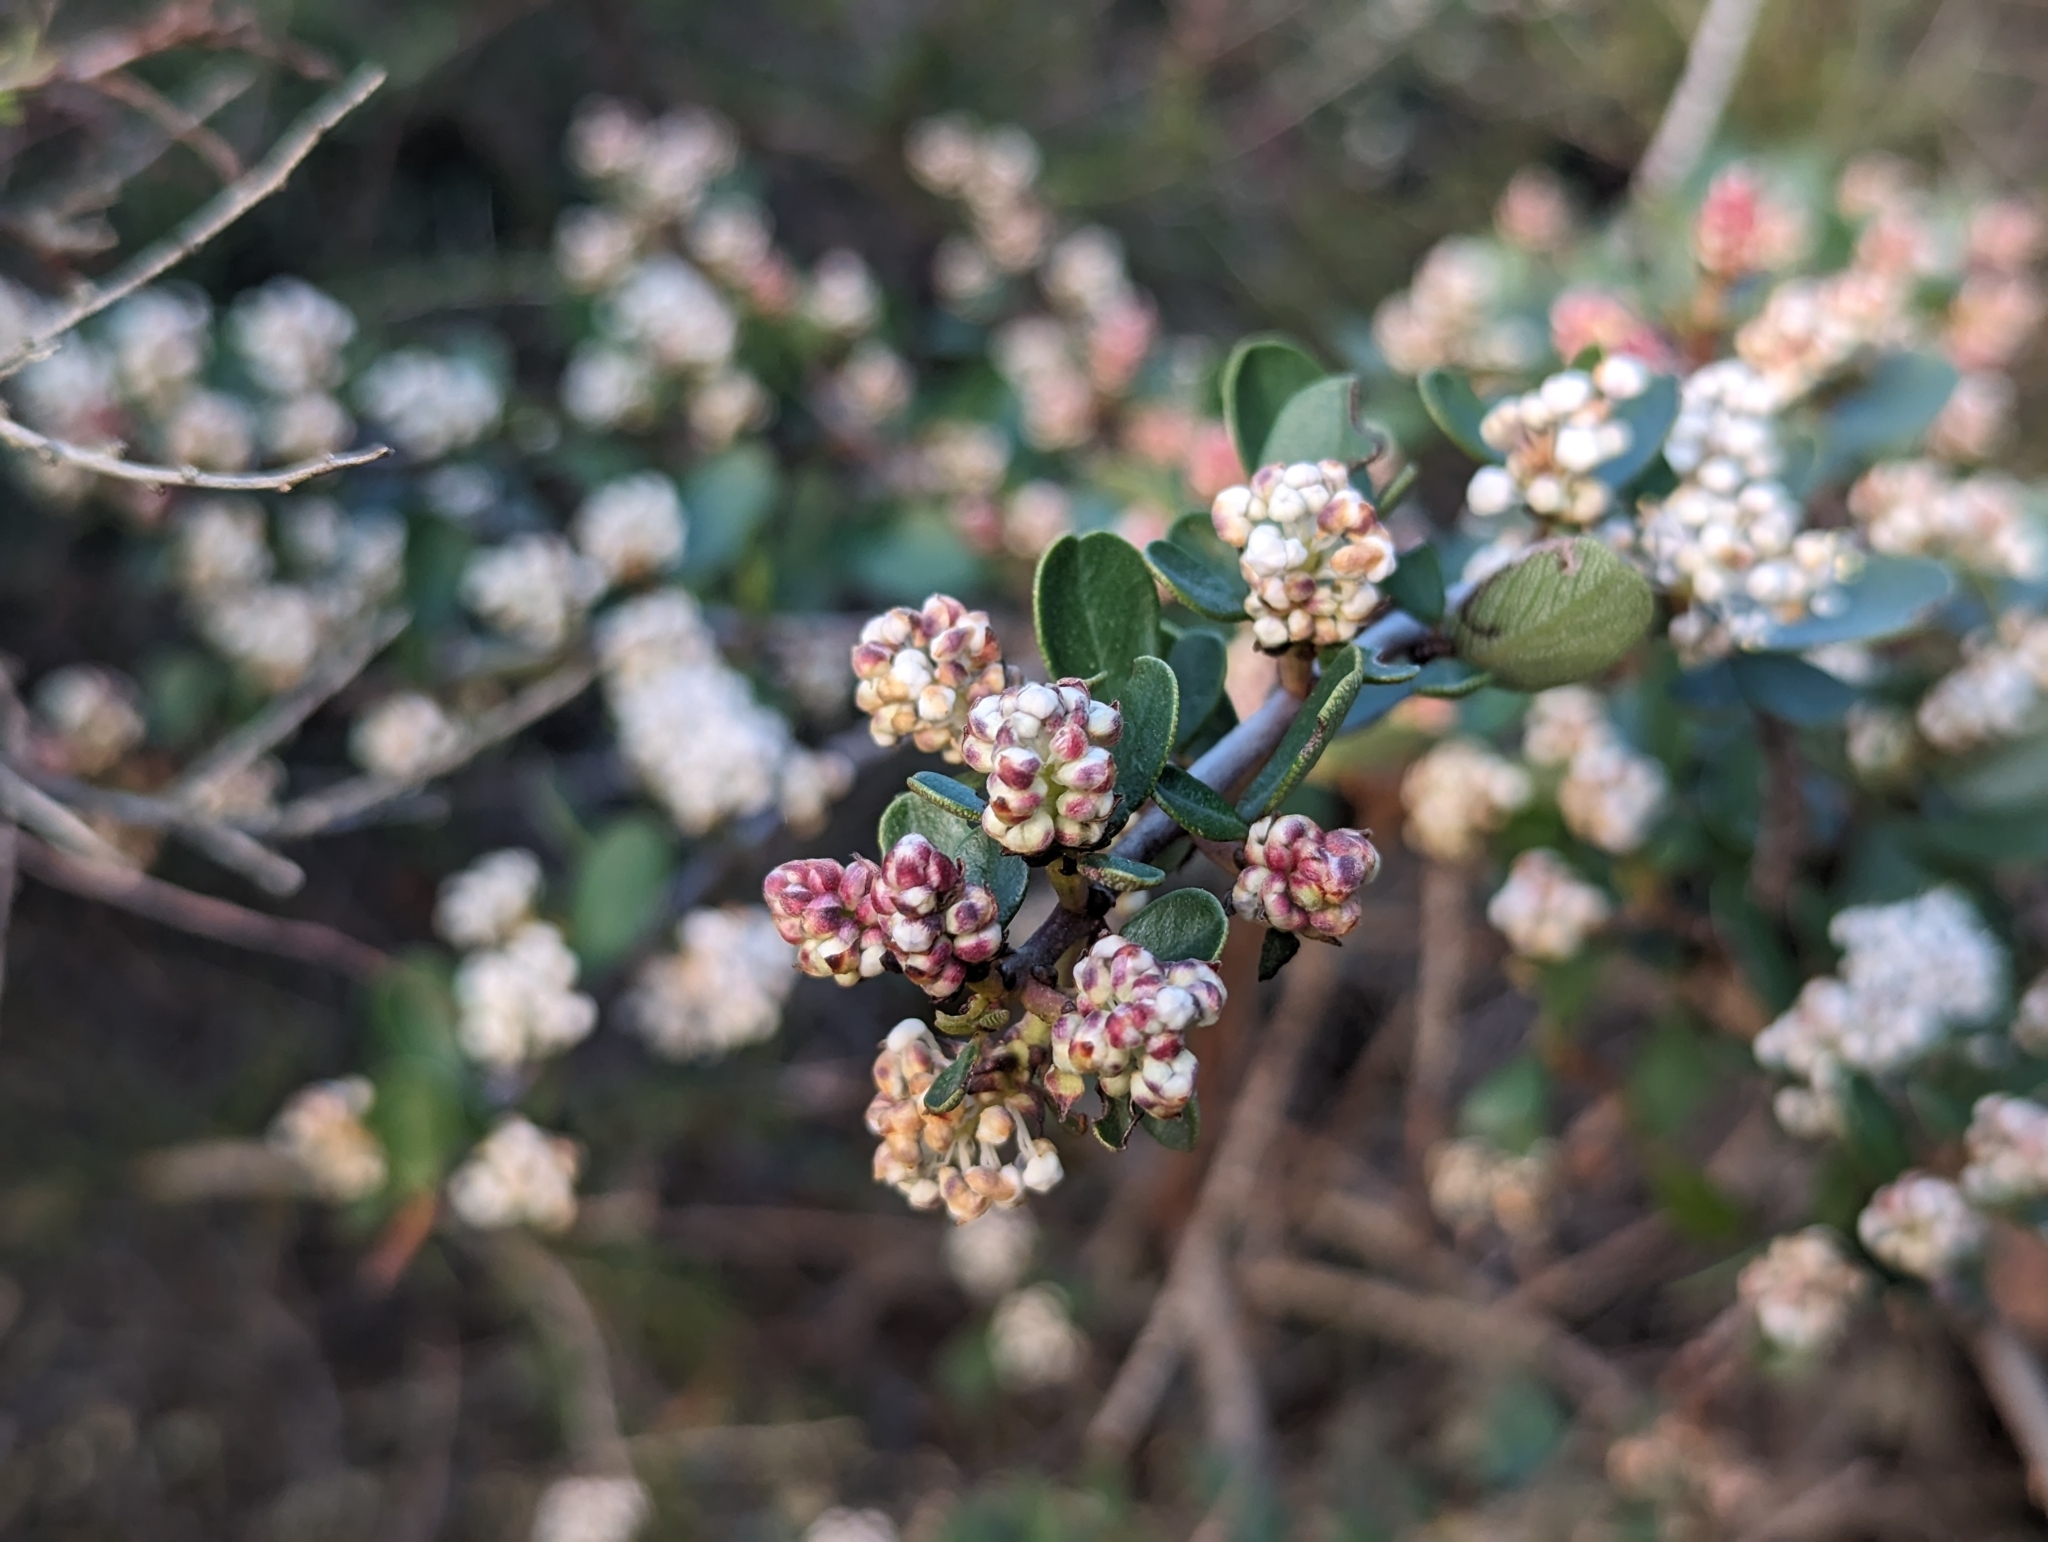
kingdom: Plantae
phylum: Tracheophyta
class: Magnoliopsida
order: Rosales
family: Rhamnaceae
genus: Ceanothus
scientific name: Ceanothus cuneatus
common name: Cuneate ceanothus
